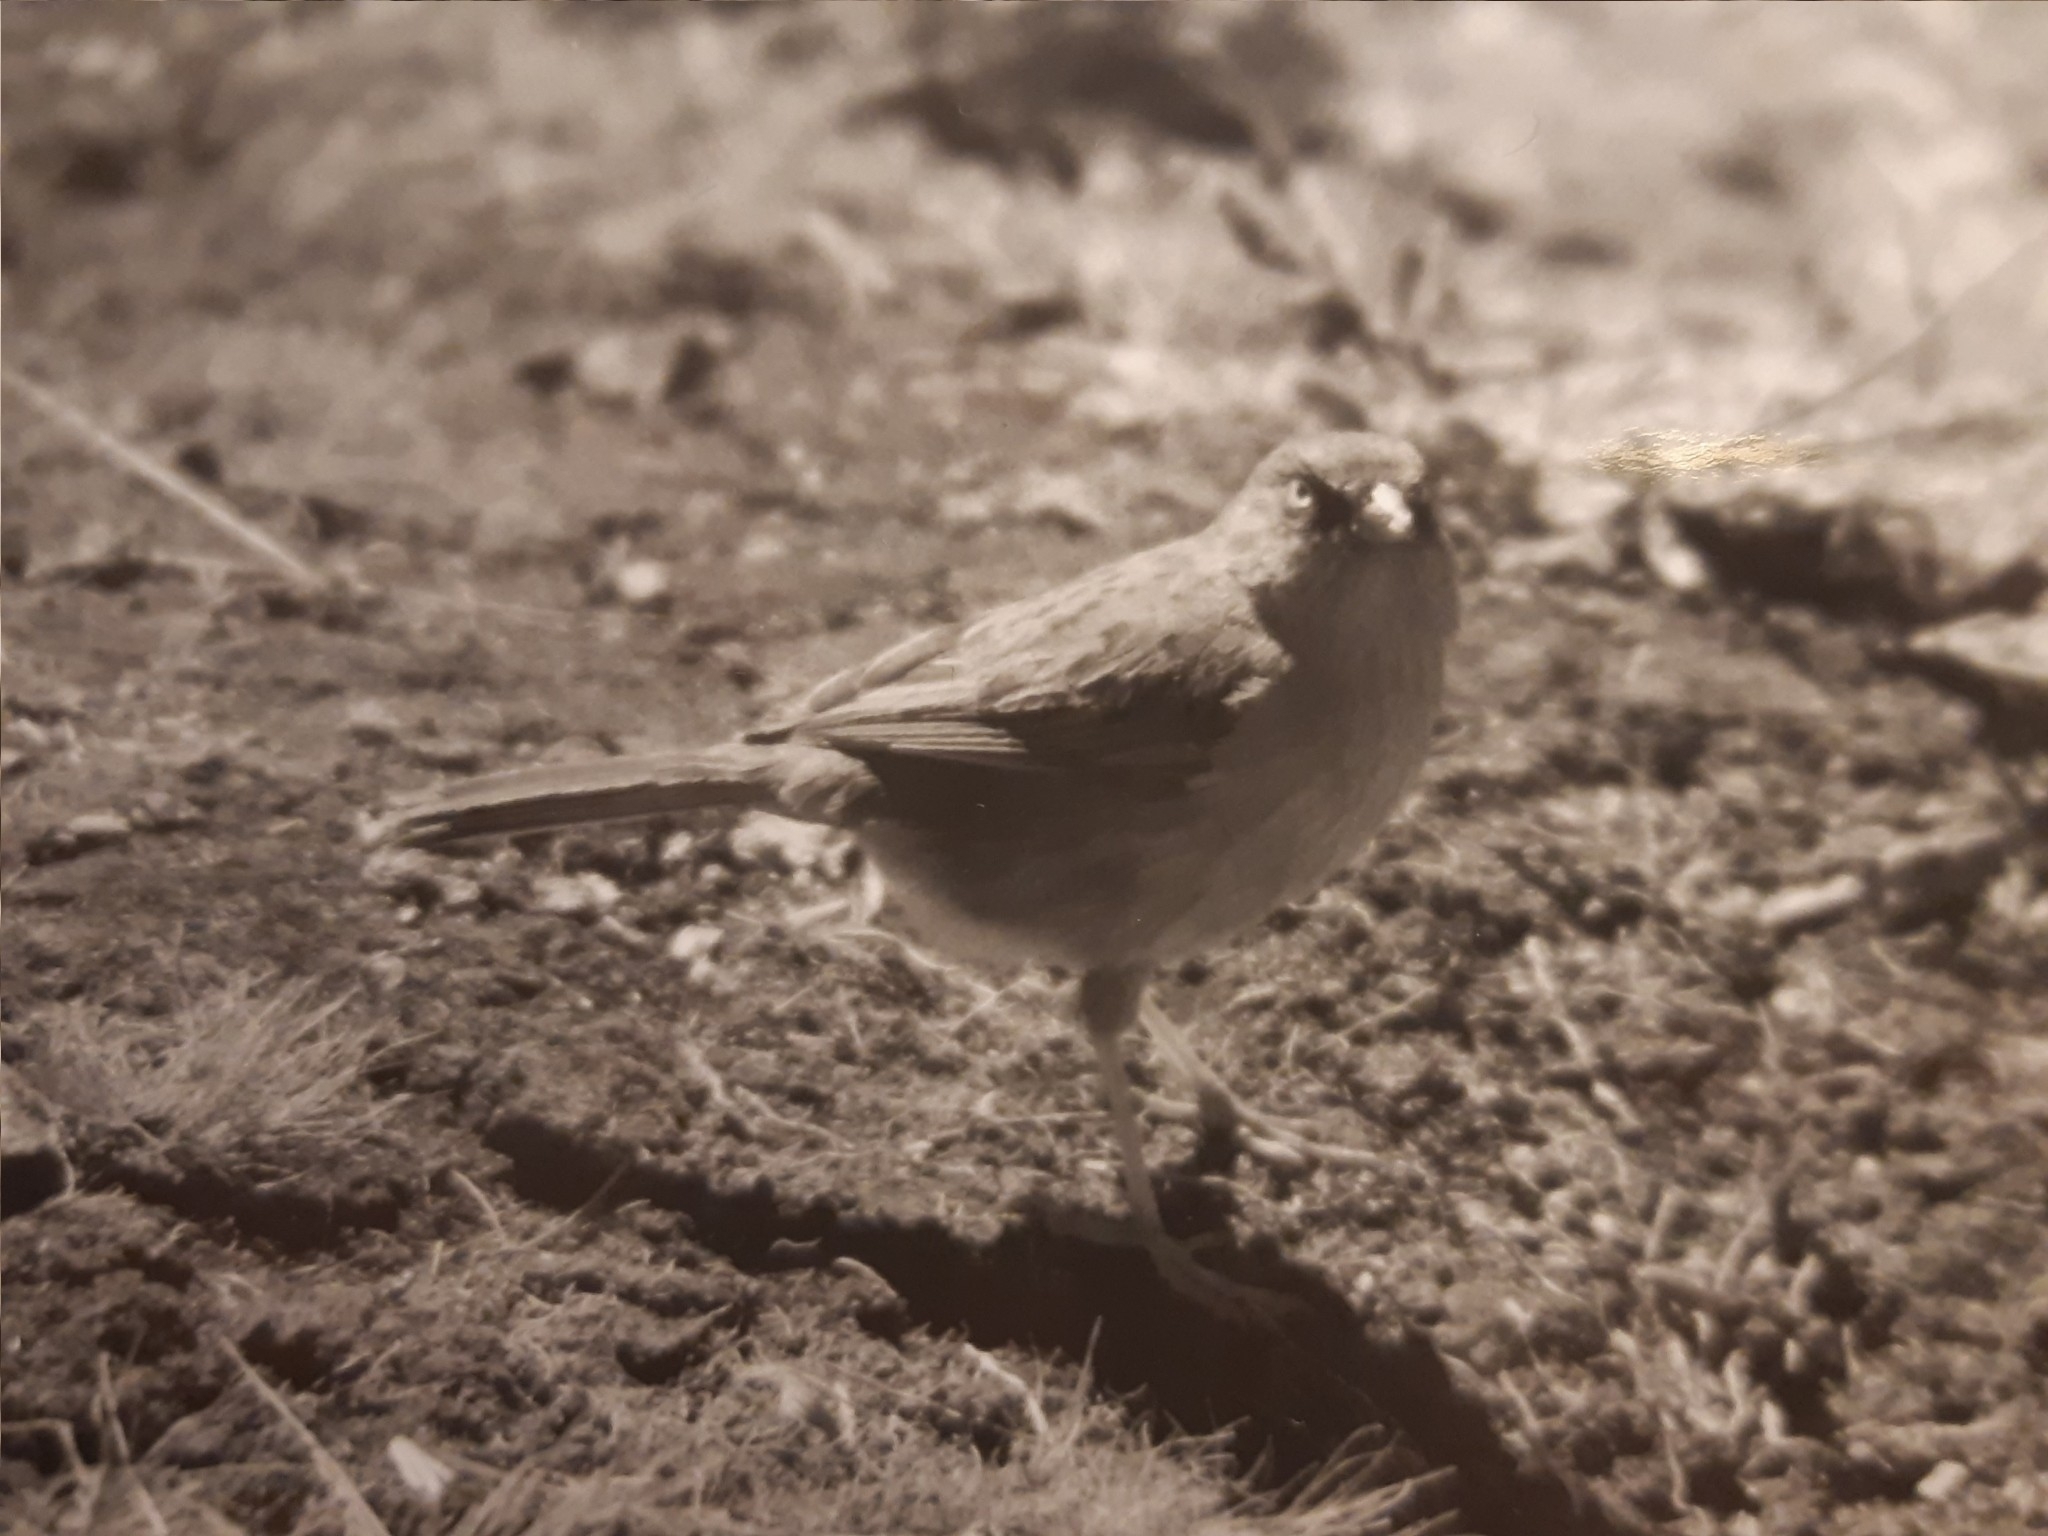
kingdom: Animalia
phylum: Chordata
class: Aves
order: Passeriformes
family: Passerellidae
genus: Junco
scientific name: Junco vulcani
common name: Volcano junco
